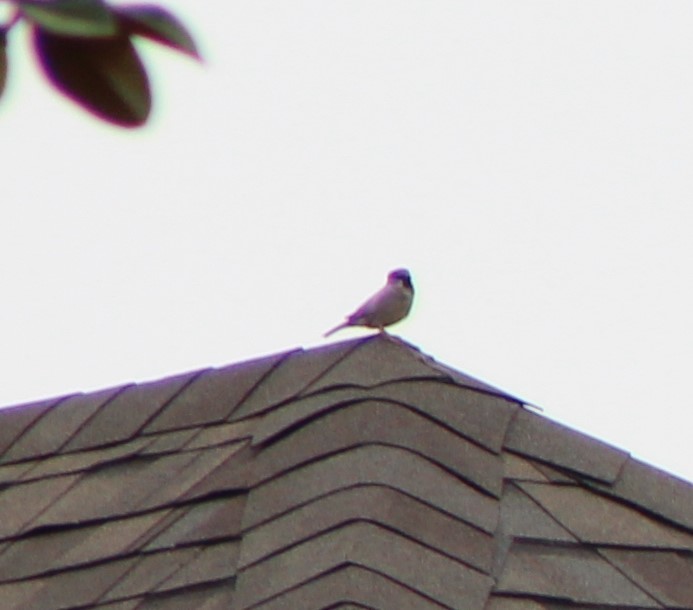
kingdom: Animalia
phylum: Chordata
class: Aves
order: Passeriformes
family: Passeridae
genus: Passer
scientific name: Passer domesticus
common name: House sparrow
